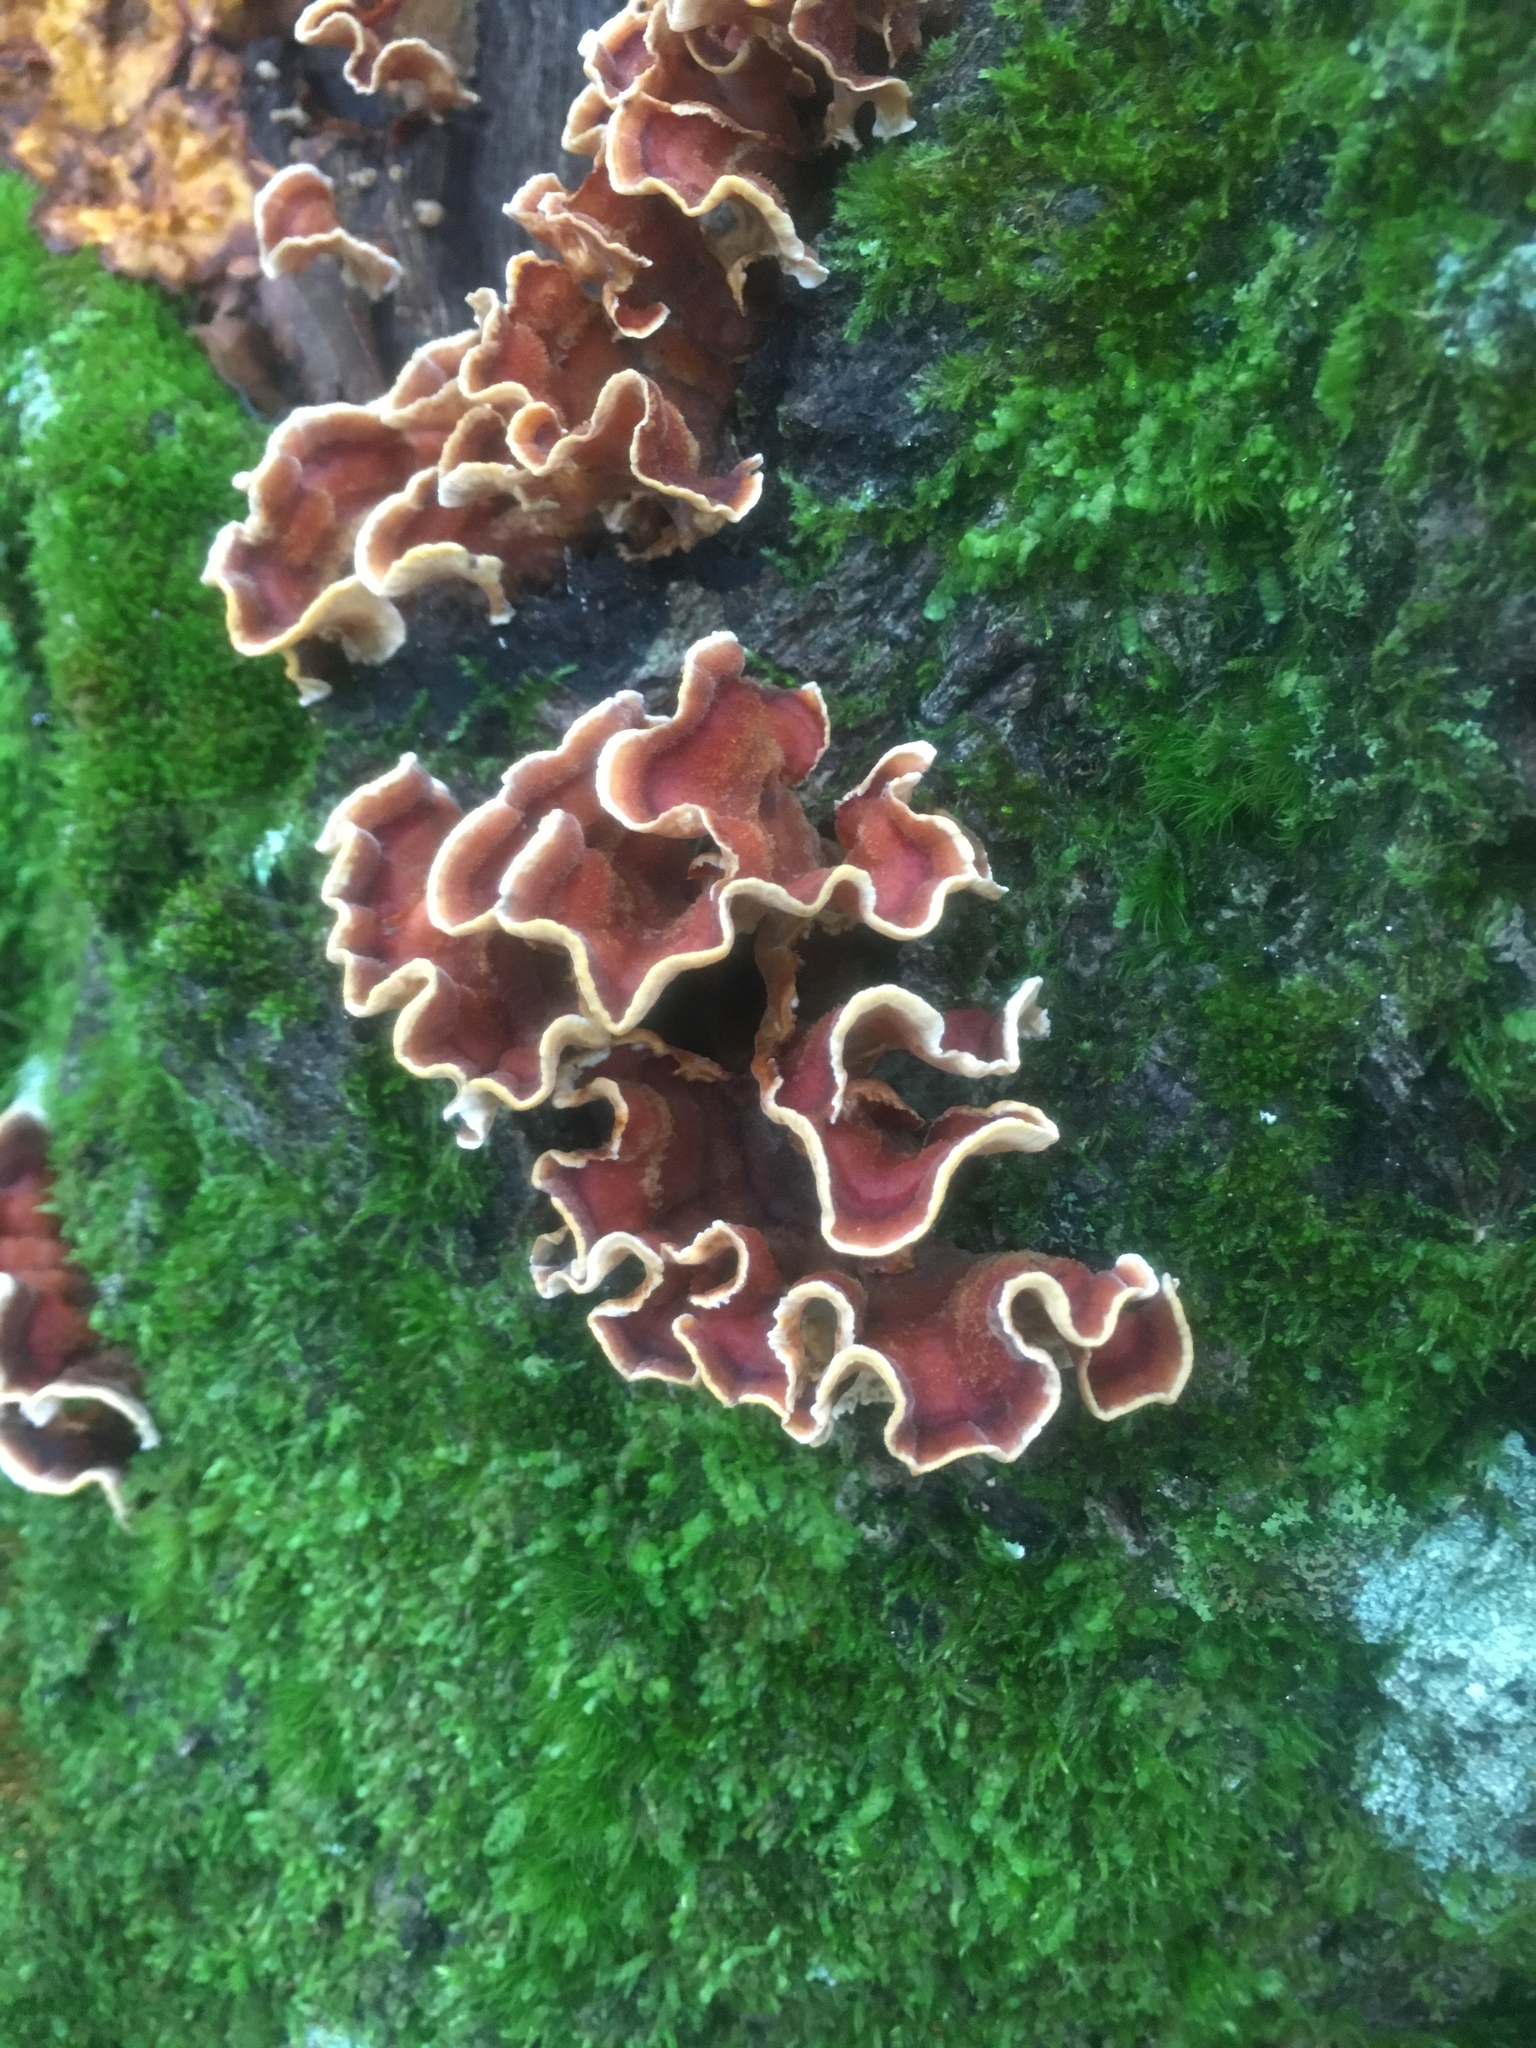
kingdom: Fungi
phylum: Basidiomycota
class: Agaricomycetes
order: Russulales
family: Stereaceae
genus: Stereum
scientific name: Stereum gausapatum
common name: Bleeding oak crust
